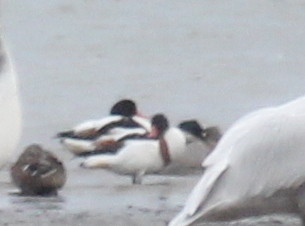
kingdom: Animalia
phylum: Chordata
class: Aves
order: Anseriformes
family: Anatidae
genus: Tadorna
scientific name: Tadorna tadorna
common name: Common shelduck
